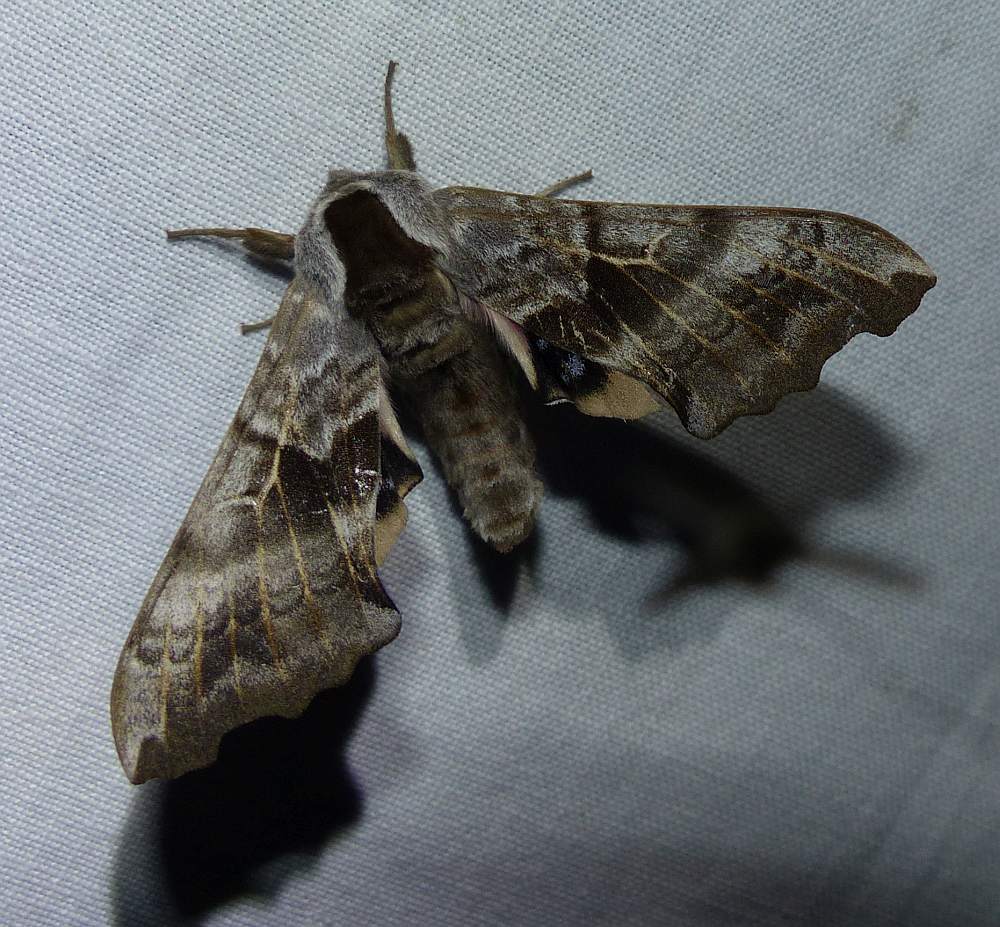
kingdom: Animalia
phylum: Arthropoda
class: Insecta
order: Lepidoptera
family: Sphingidae
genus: Smerinthus
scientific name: Smerinthus cerisyi
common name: Cerisy's sphinx moth
